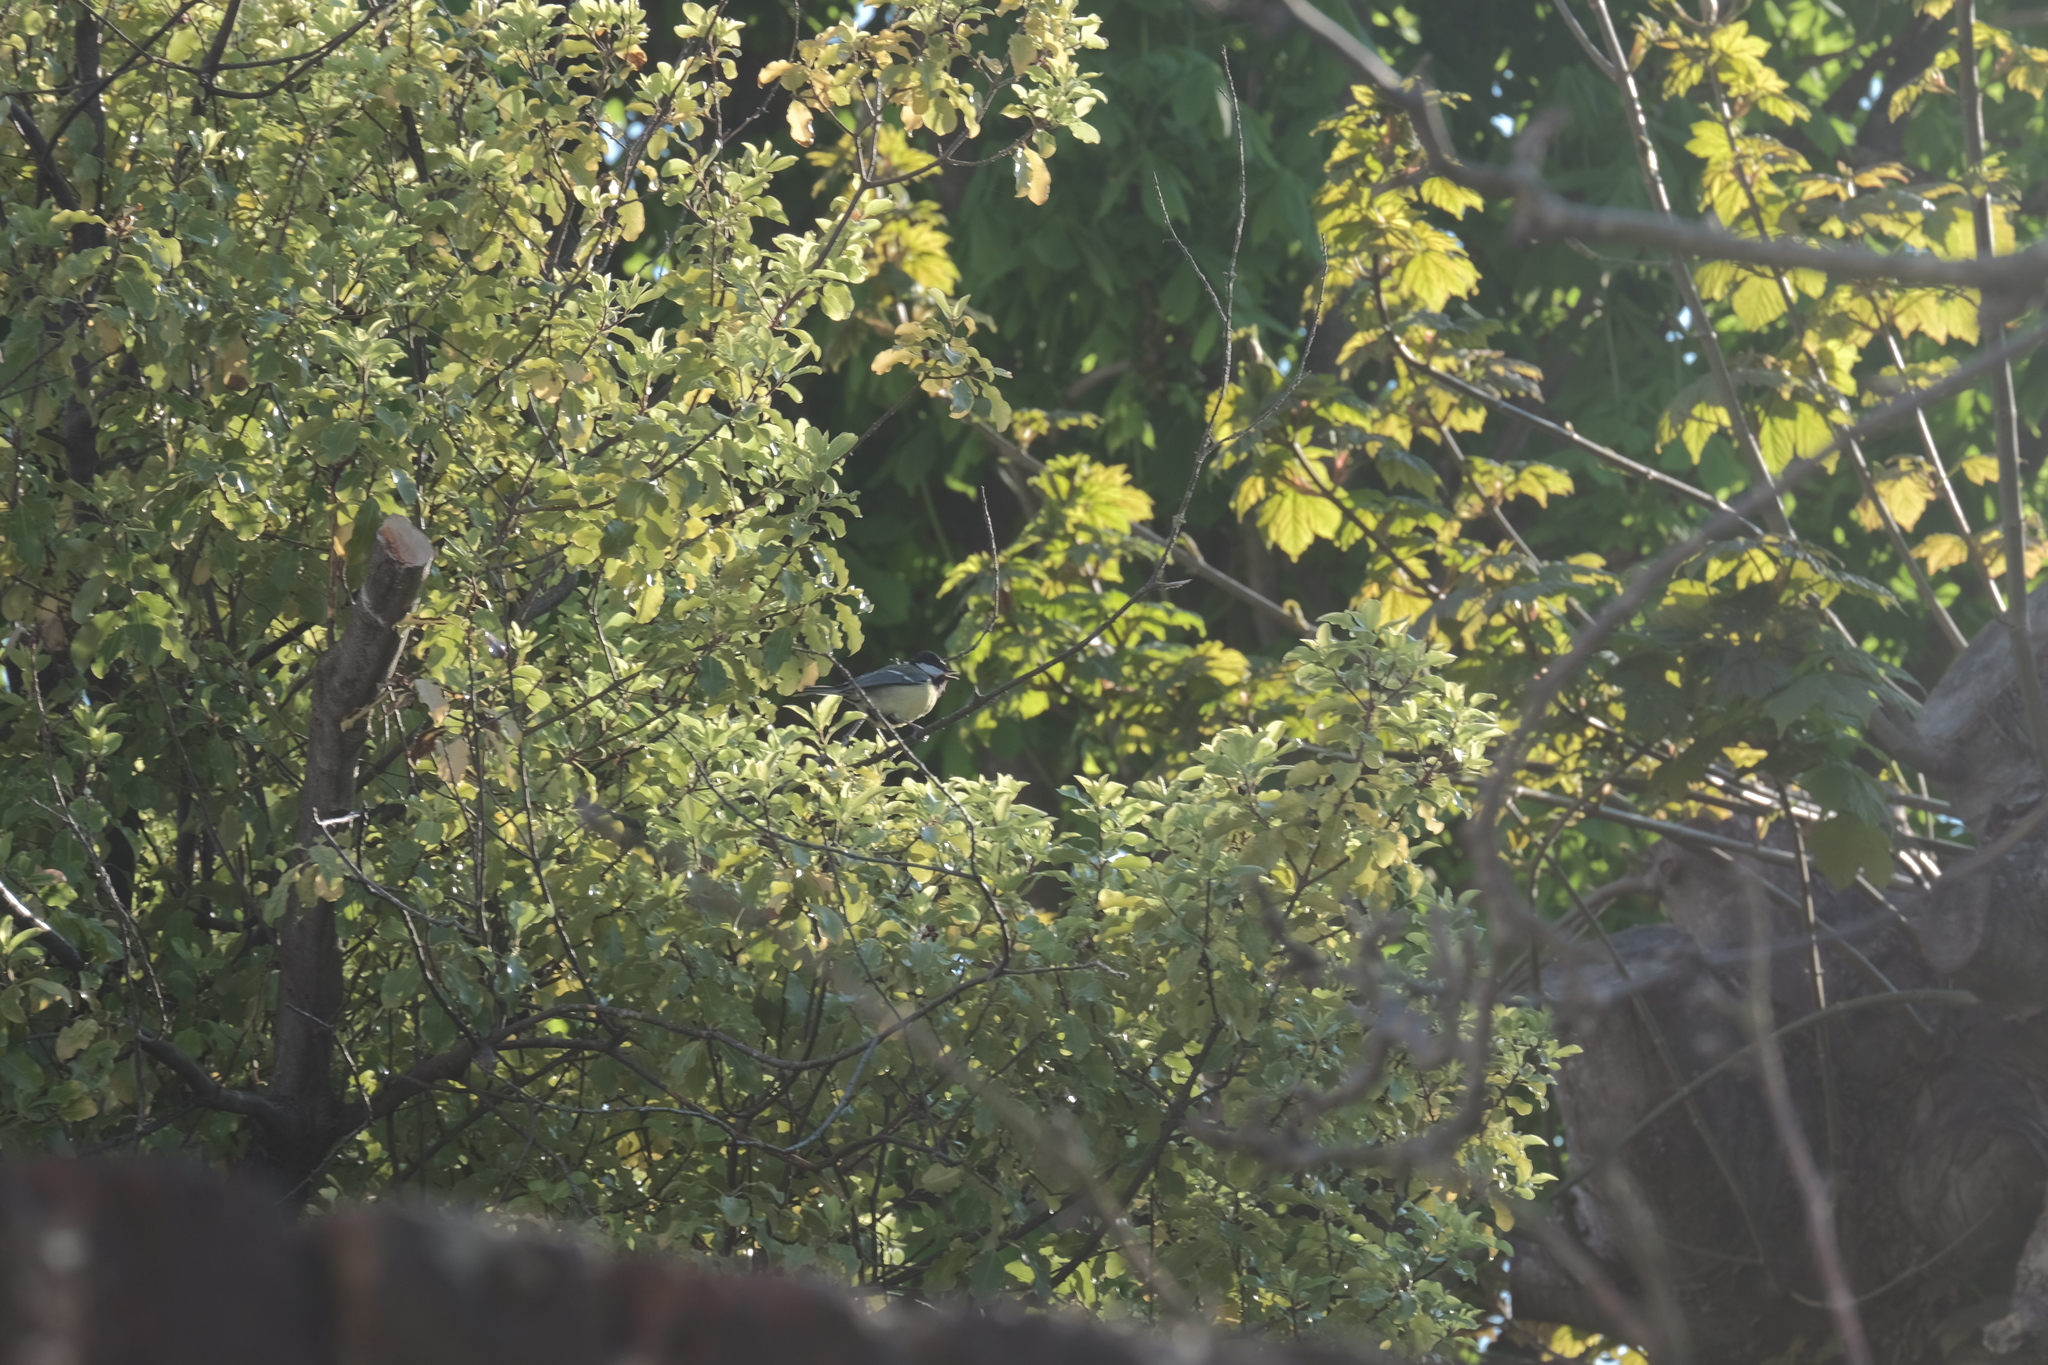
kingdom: Animalia
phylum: Chordata
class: Aves
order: Passeriformes
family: Paridae
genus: Parus
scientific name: Parus major
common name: Great tit
